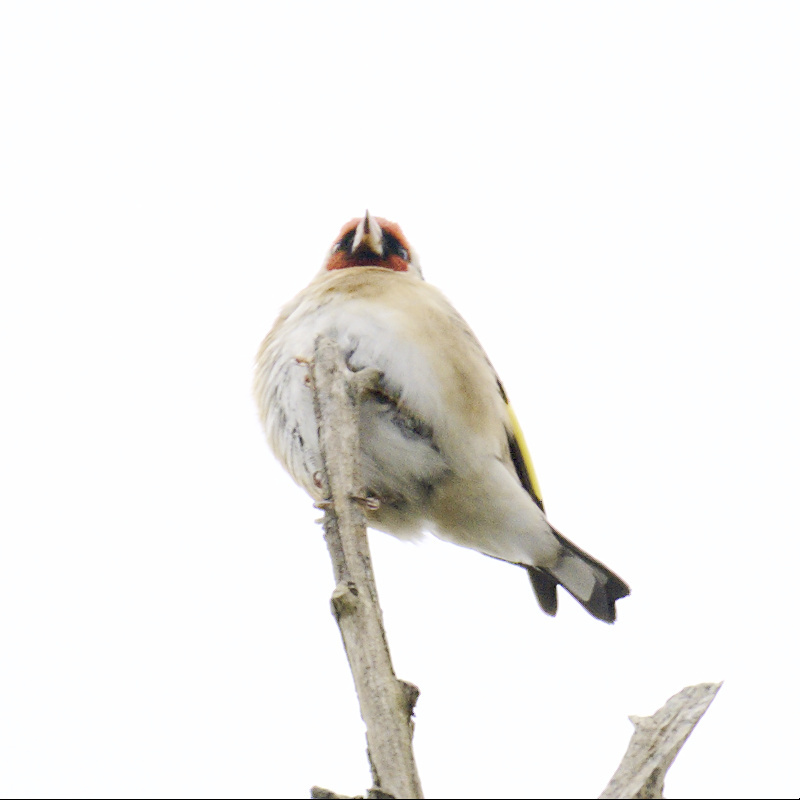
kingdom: Animalia
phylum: Chordata
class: Aves
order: Passeriformes
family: Fringillidae
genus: Carduelis
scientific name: Carduelis carduelis
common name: European goldfinch
